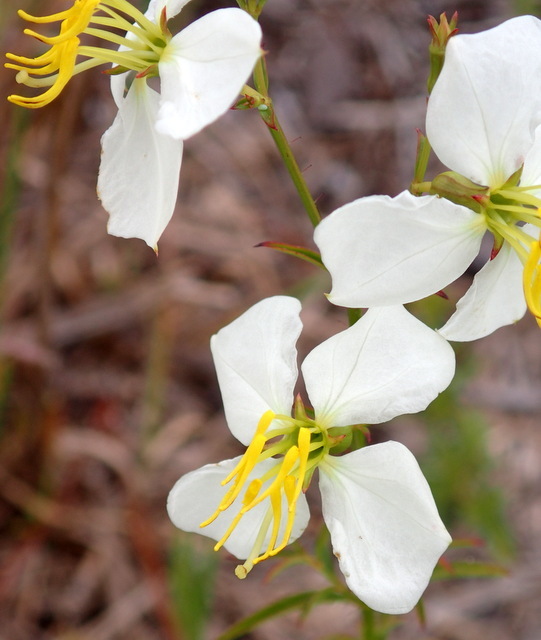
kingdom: Plantae
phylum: Tracheophyta
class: Magnoliopsida
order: Myrtales
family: Melastomataceae
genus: Rhexia
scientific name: Rhexia mariana
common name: Dull meadow-pitcher
